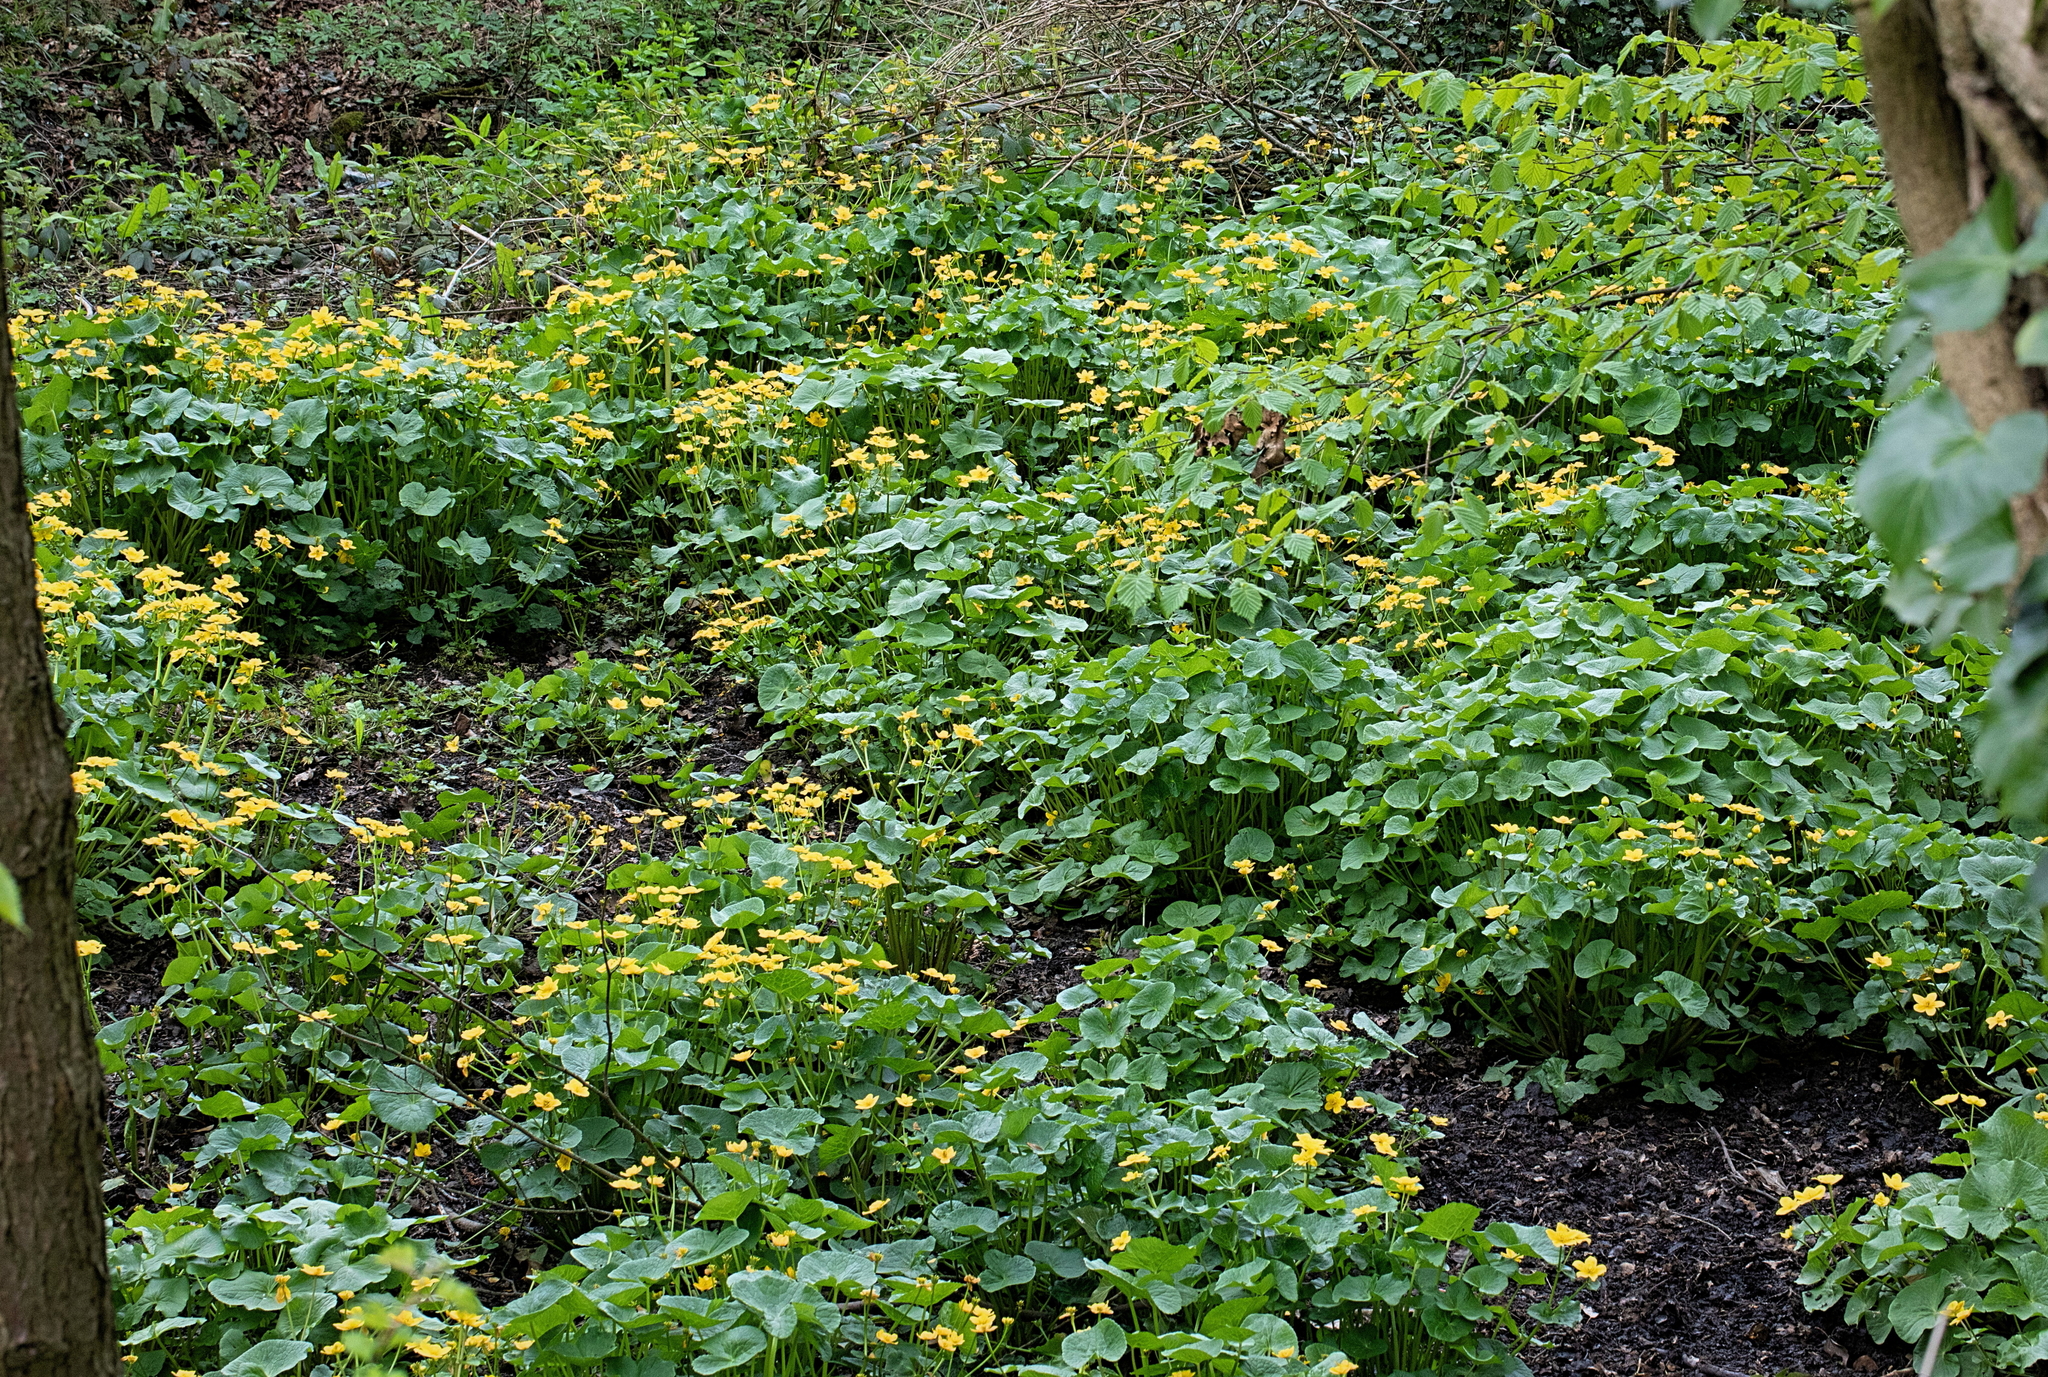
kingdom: Plantae
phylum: Tracheophyta
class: Magnoliopsida
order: Ranunculales
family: Ranunculaceae
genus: Caltha
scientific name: Caltha palustris
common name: Marsh marigold
